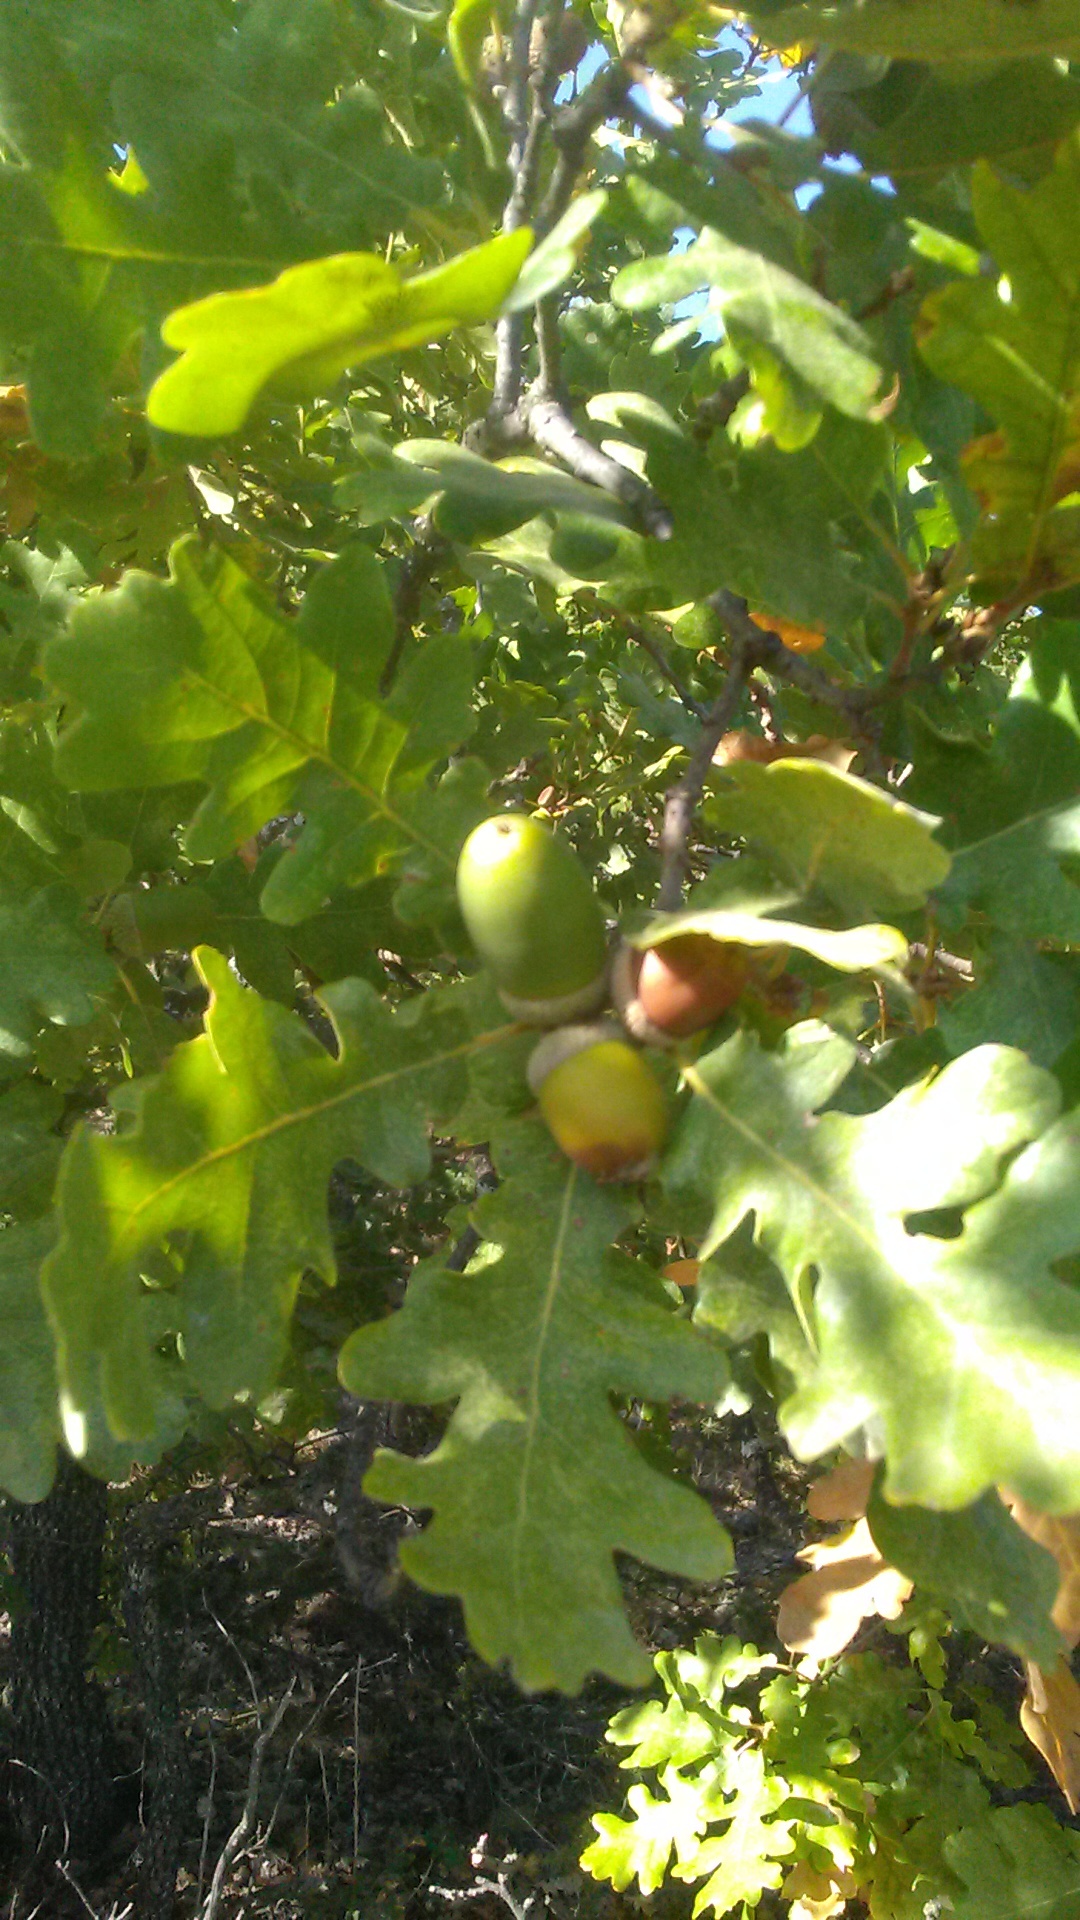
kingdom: Plantae
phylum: Tracheophyta
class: Magnoliopsida
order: Fagales
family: Fagaceae
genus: Quercus
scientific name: Quercus pubescens
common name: Downy oak
